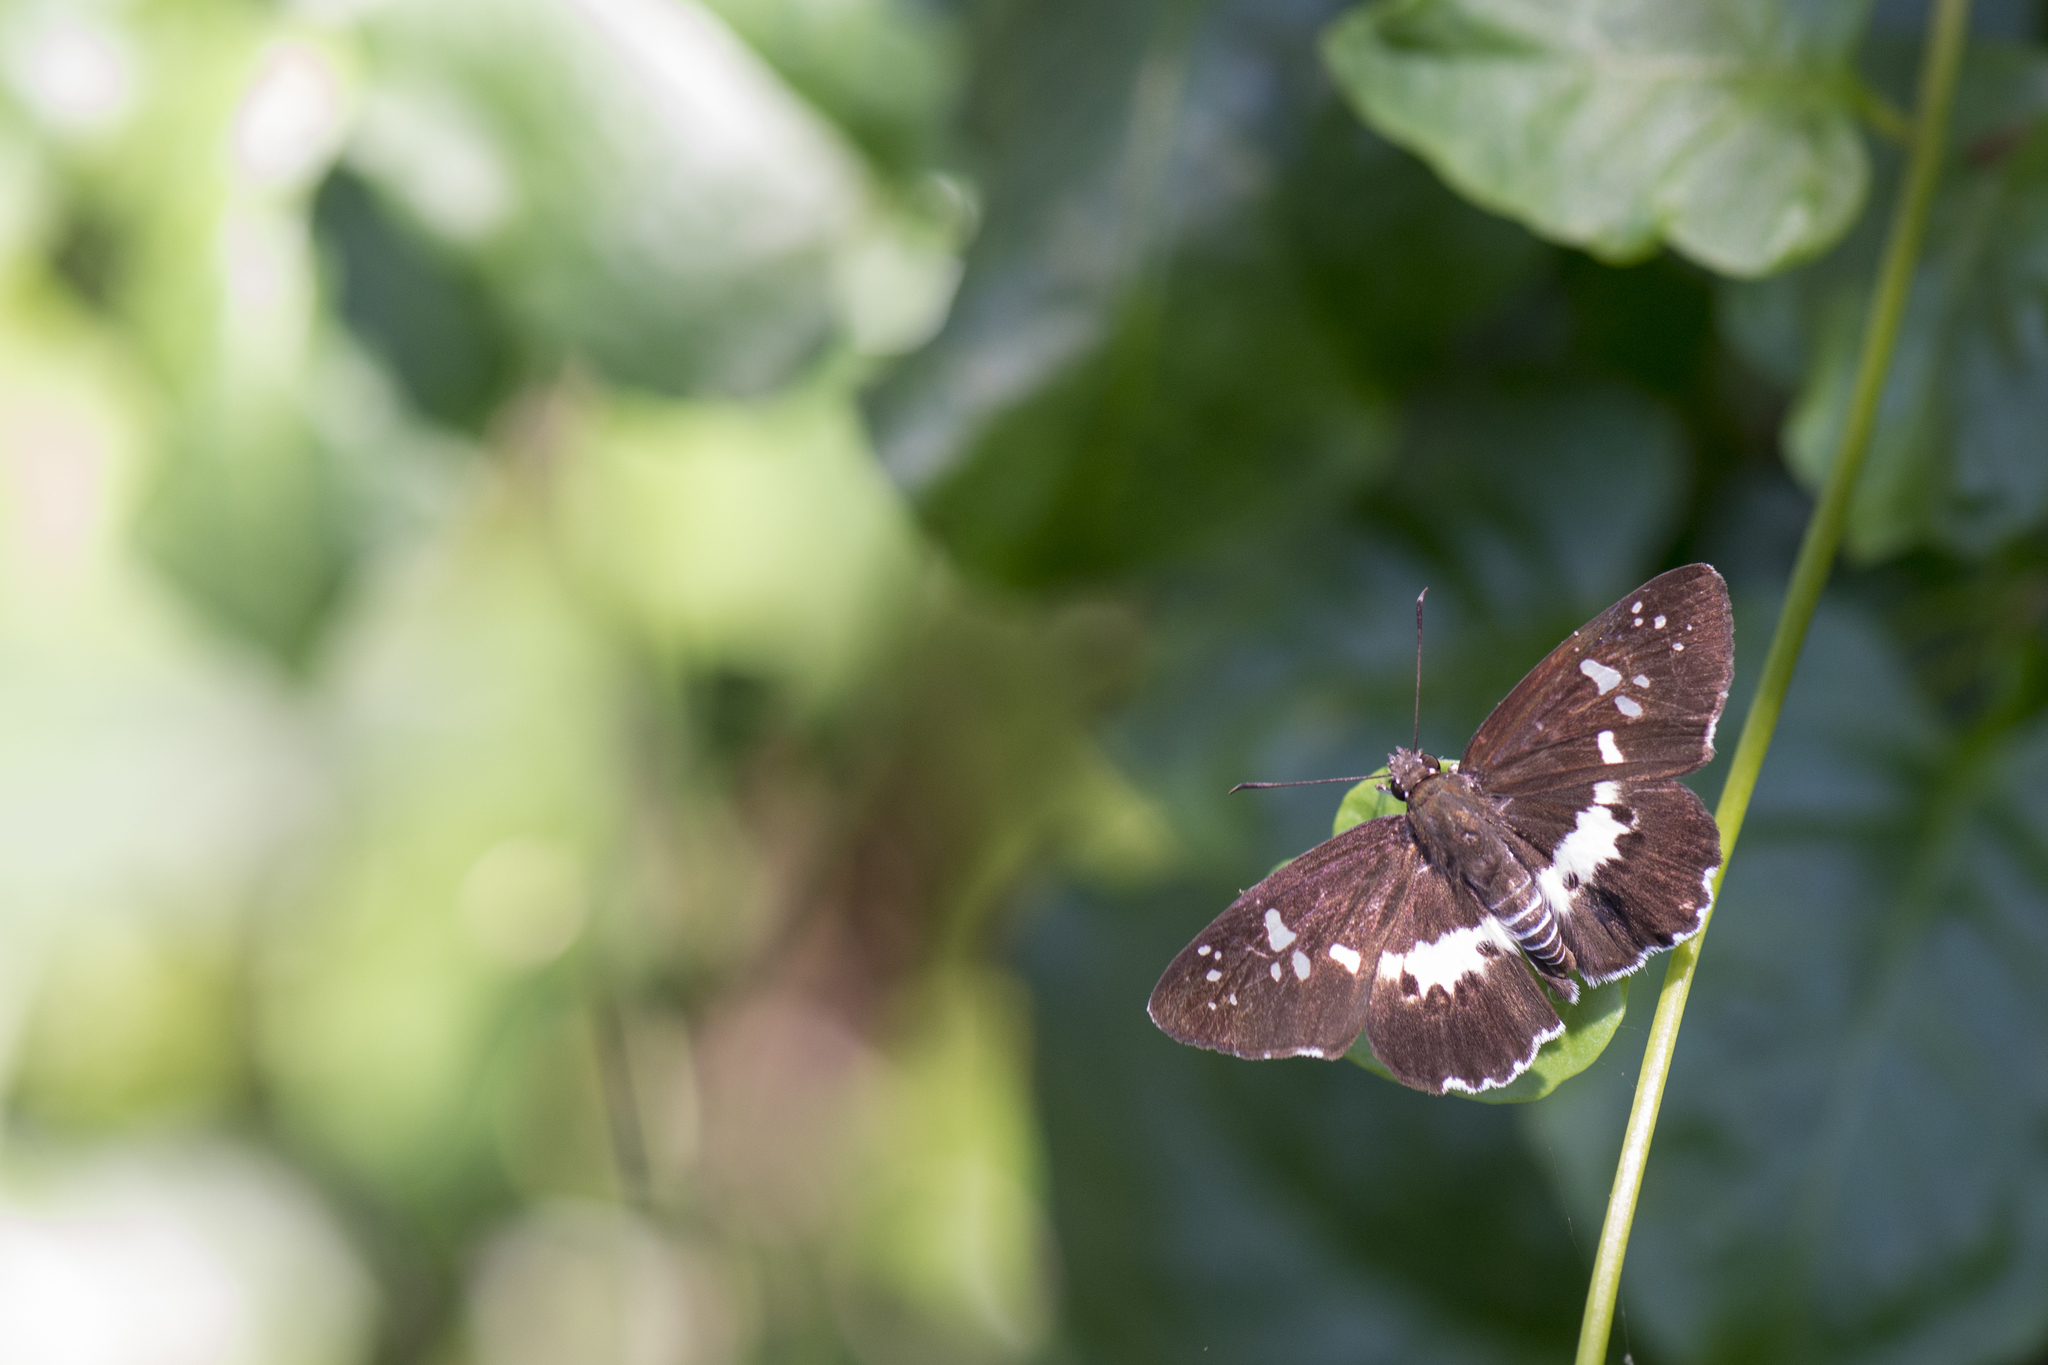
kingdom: Animalia
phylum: Arthropoda
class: Insecta
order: Lepidoptera
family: Hesperiidae
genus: Daimio
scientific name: Daimio tethys
